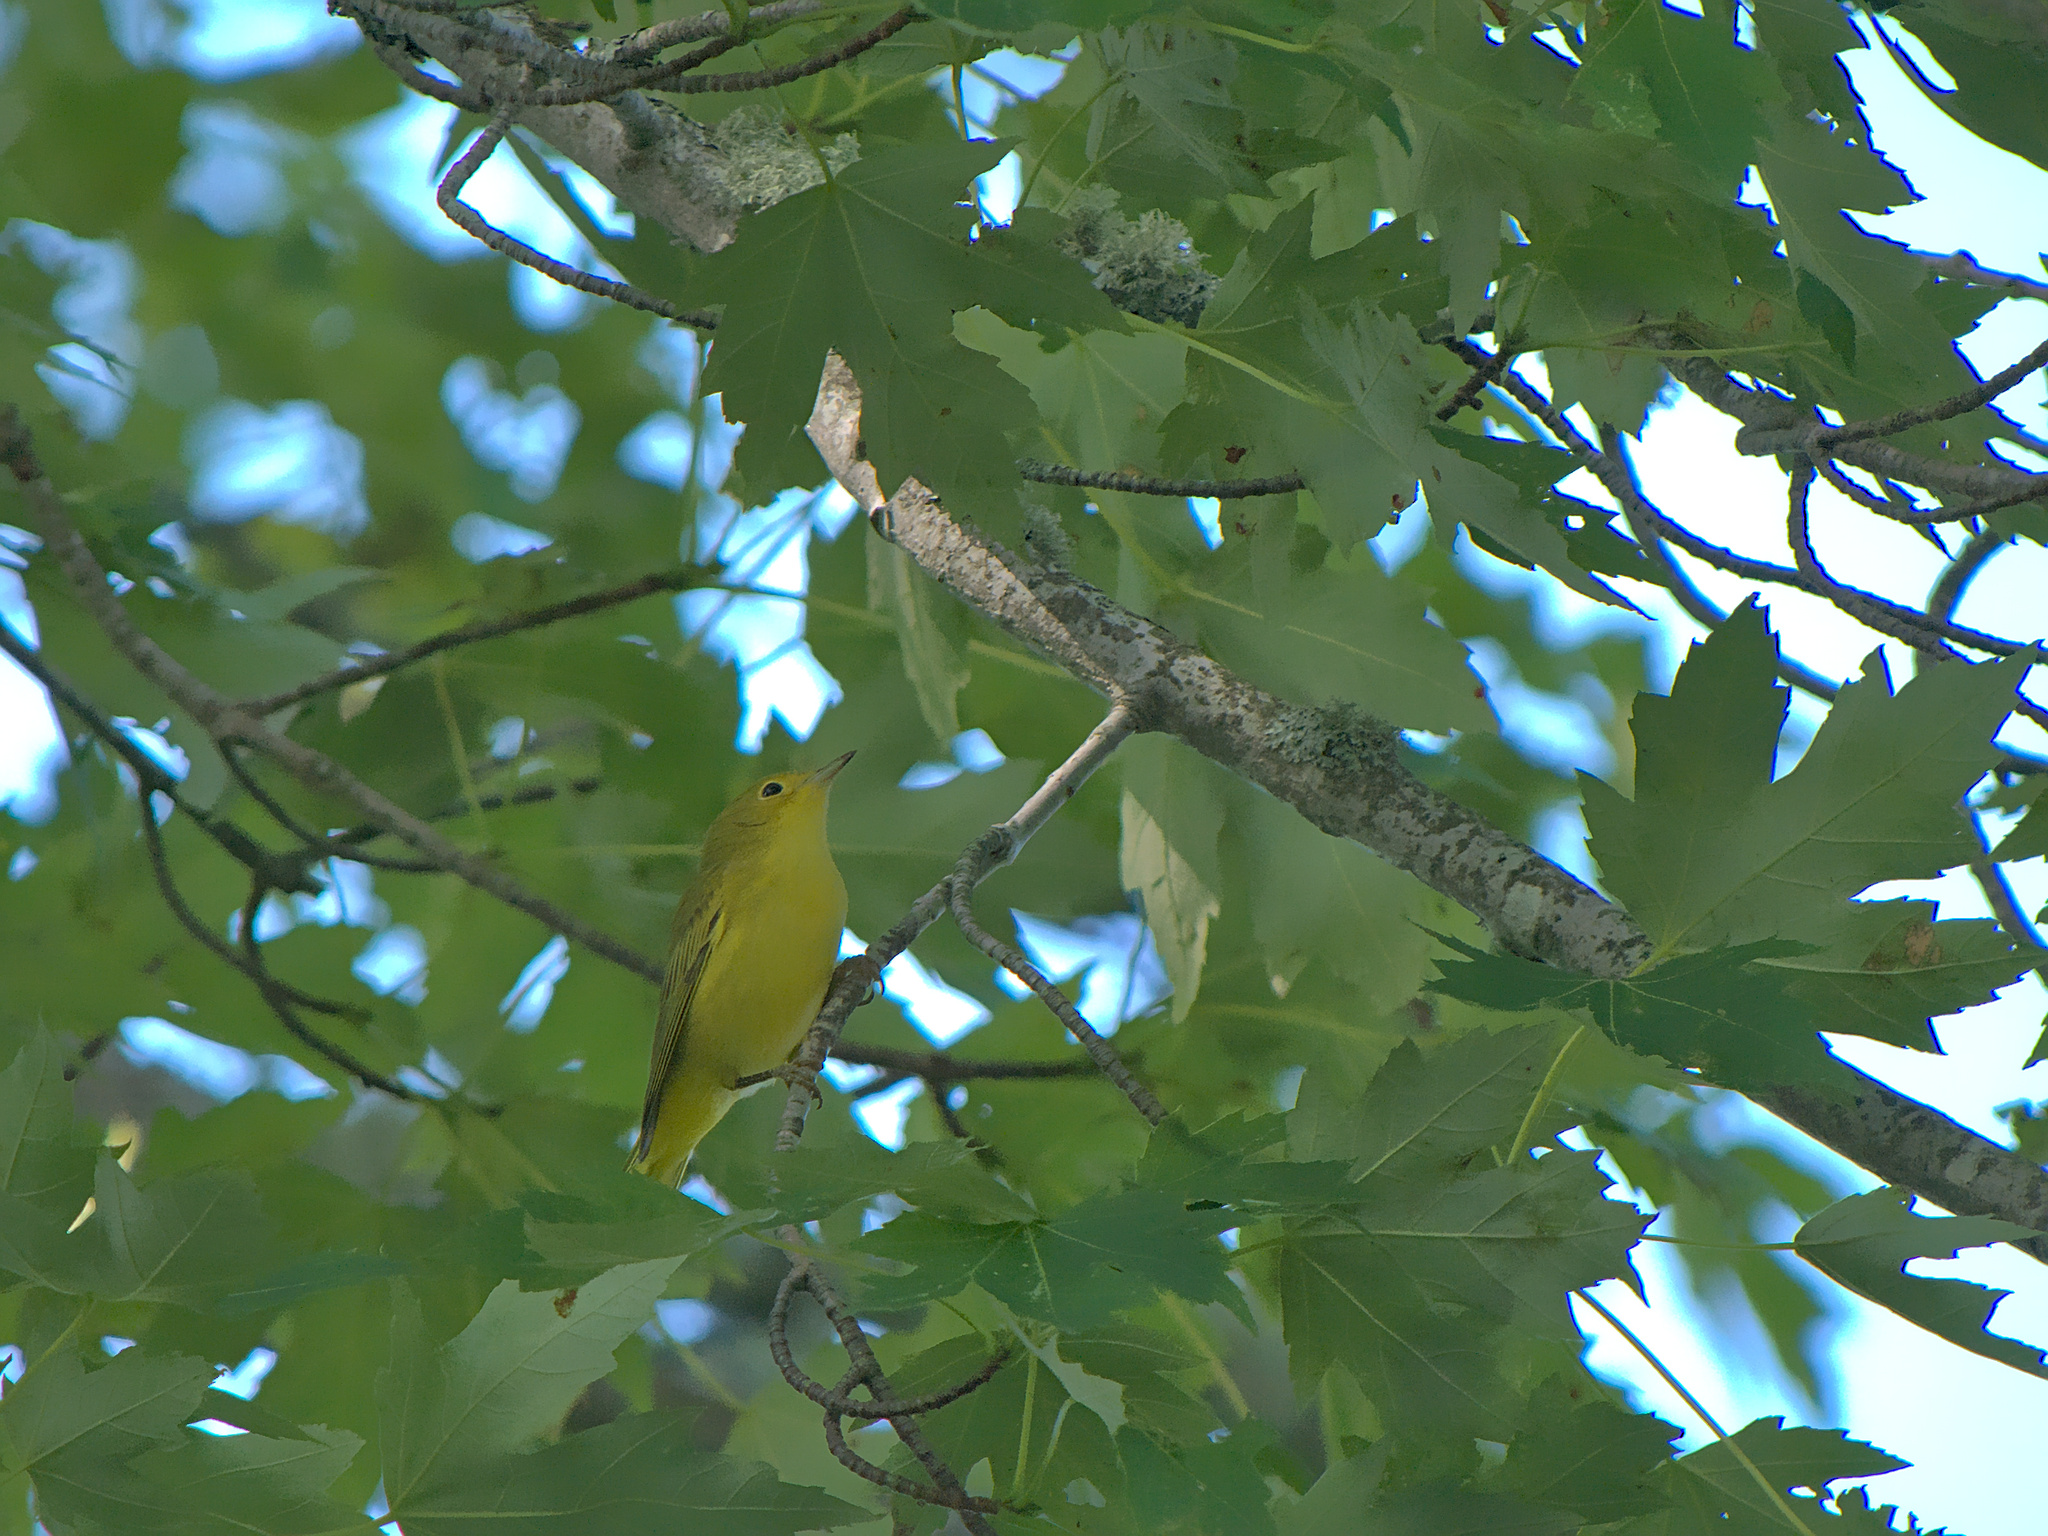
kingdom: Animalia
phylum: Chordata
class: Aves
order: Passeriformes
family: Parulidae
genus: Setophaga
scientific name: Setophaga petechia
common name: Yellow warbler
